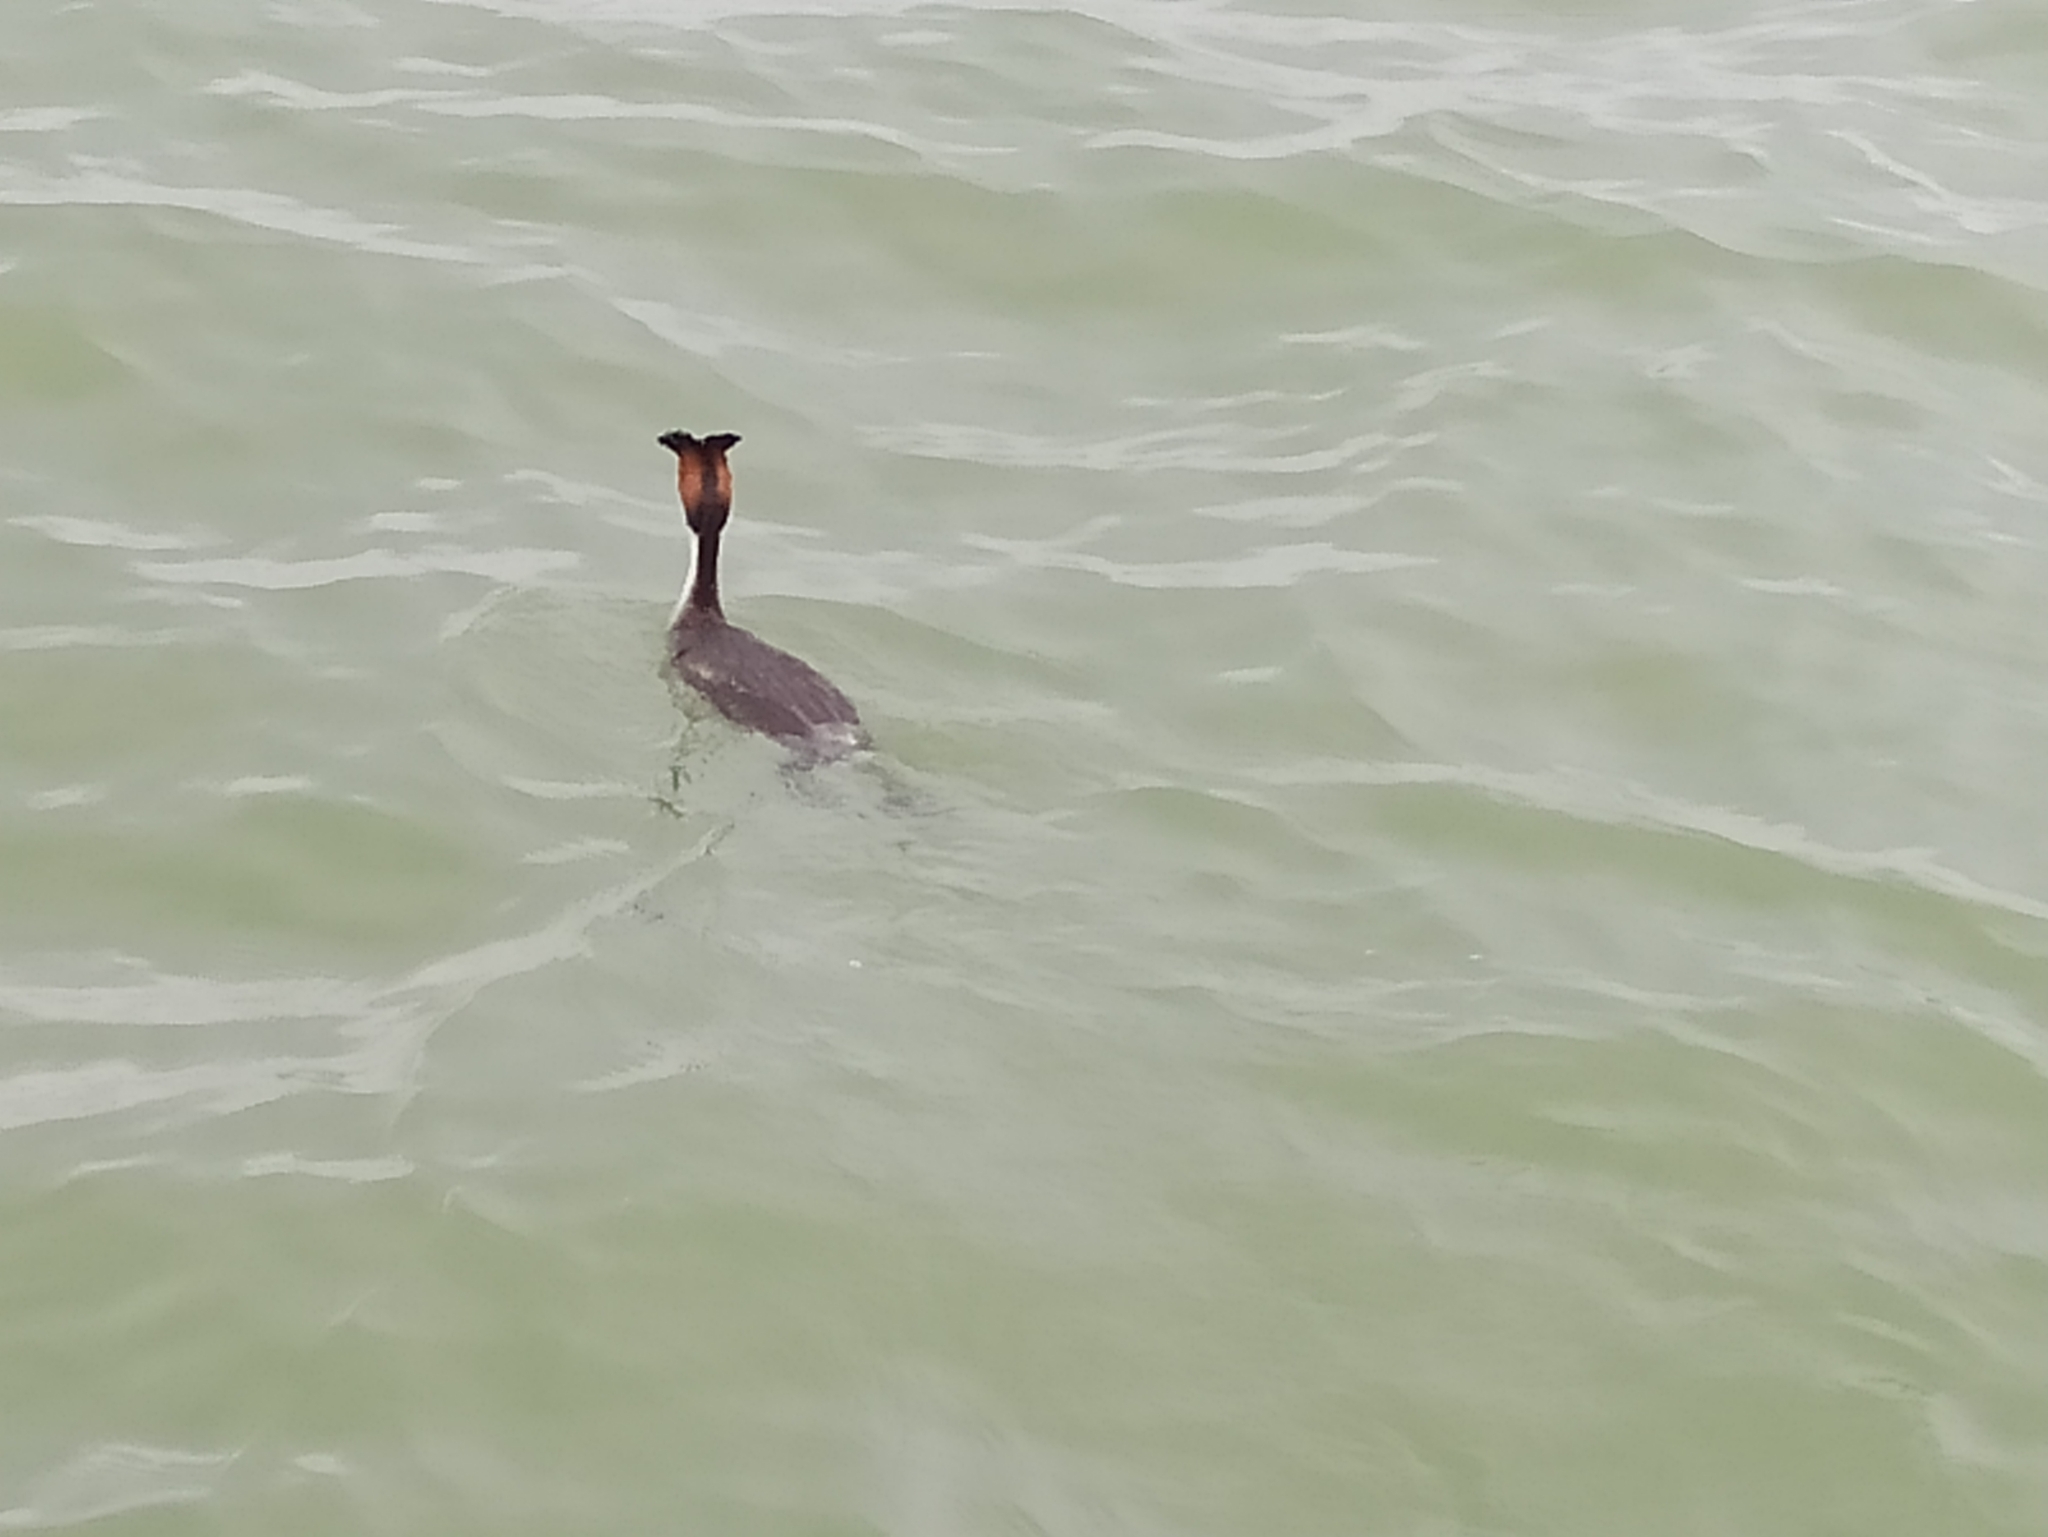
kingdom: Animalia
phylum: Chordata
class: Aves
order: Podicipediformes
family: Podicipedidae
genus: Podiceps
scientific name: Podiceps cristatus
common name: Great crested grebe
